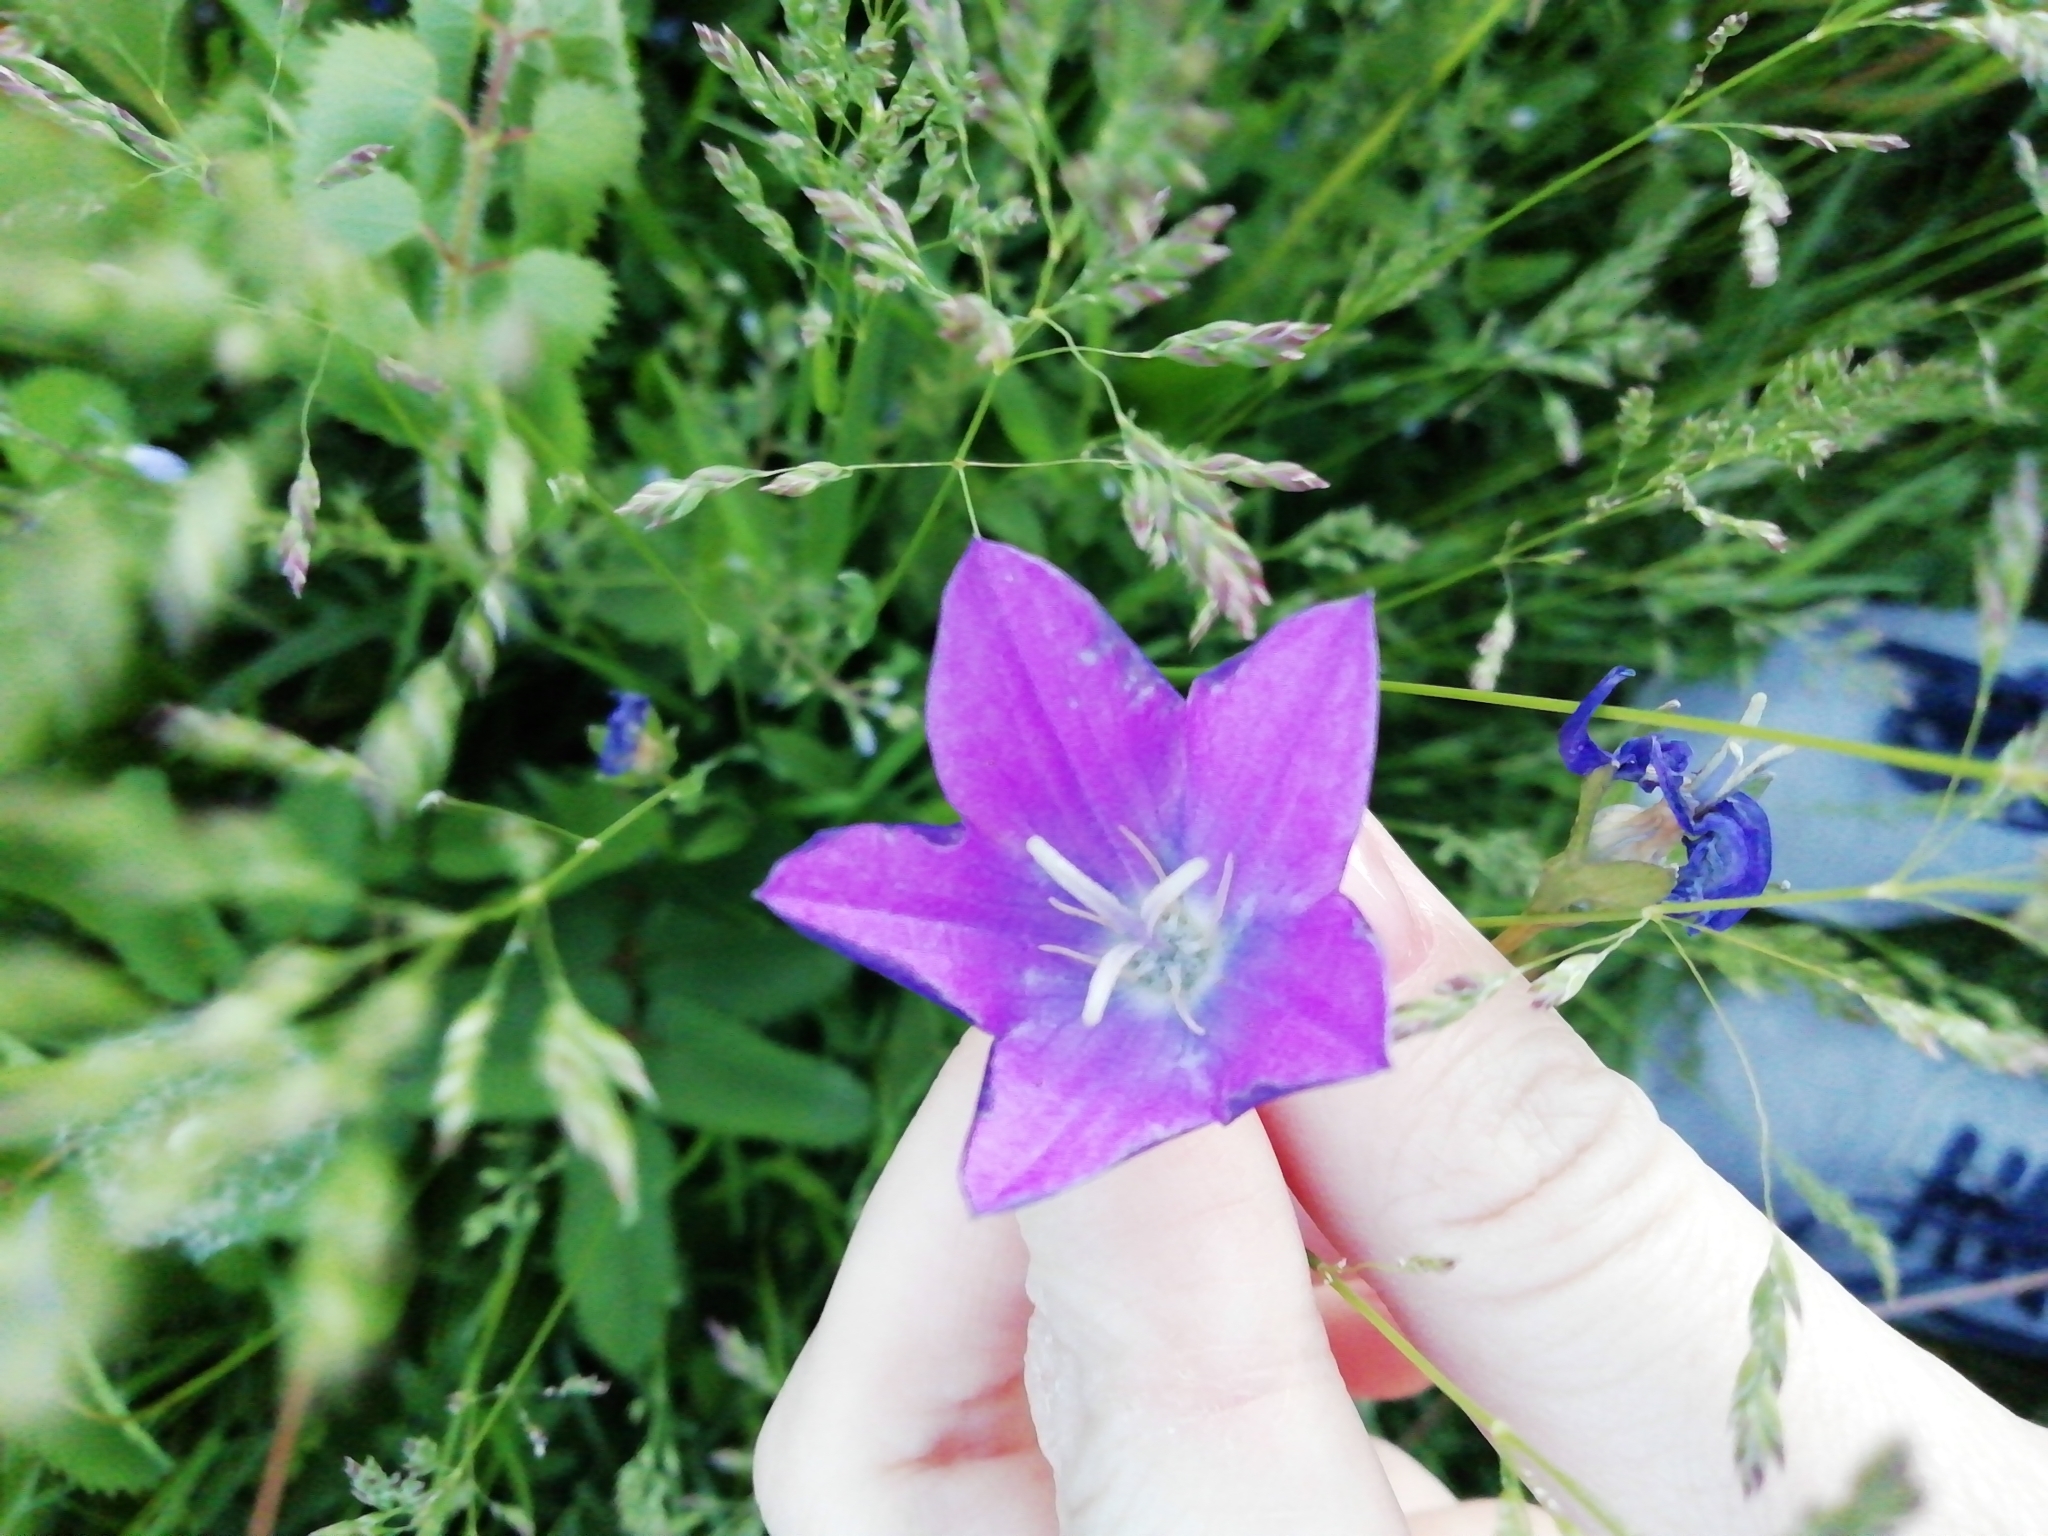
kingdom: Plantae
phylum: Tracheophyta
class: Magnoliopsida
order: Asterales
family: Campanulaceae
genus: Campanula
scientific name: Campanula stevenii
